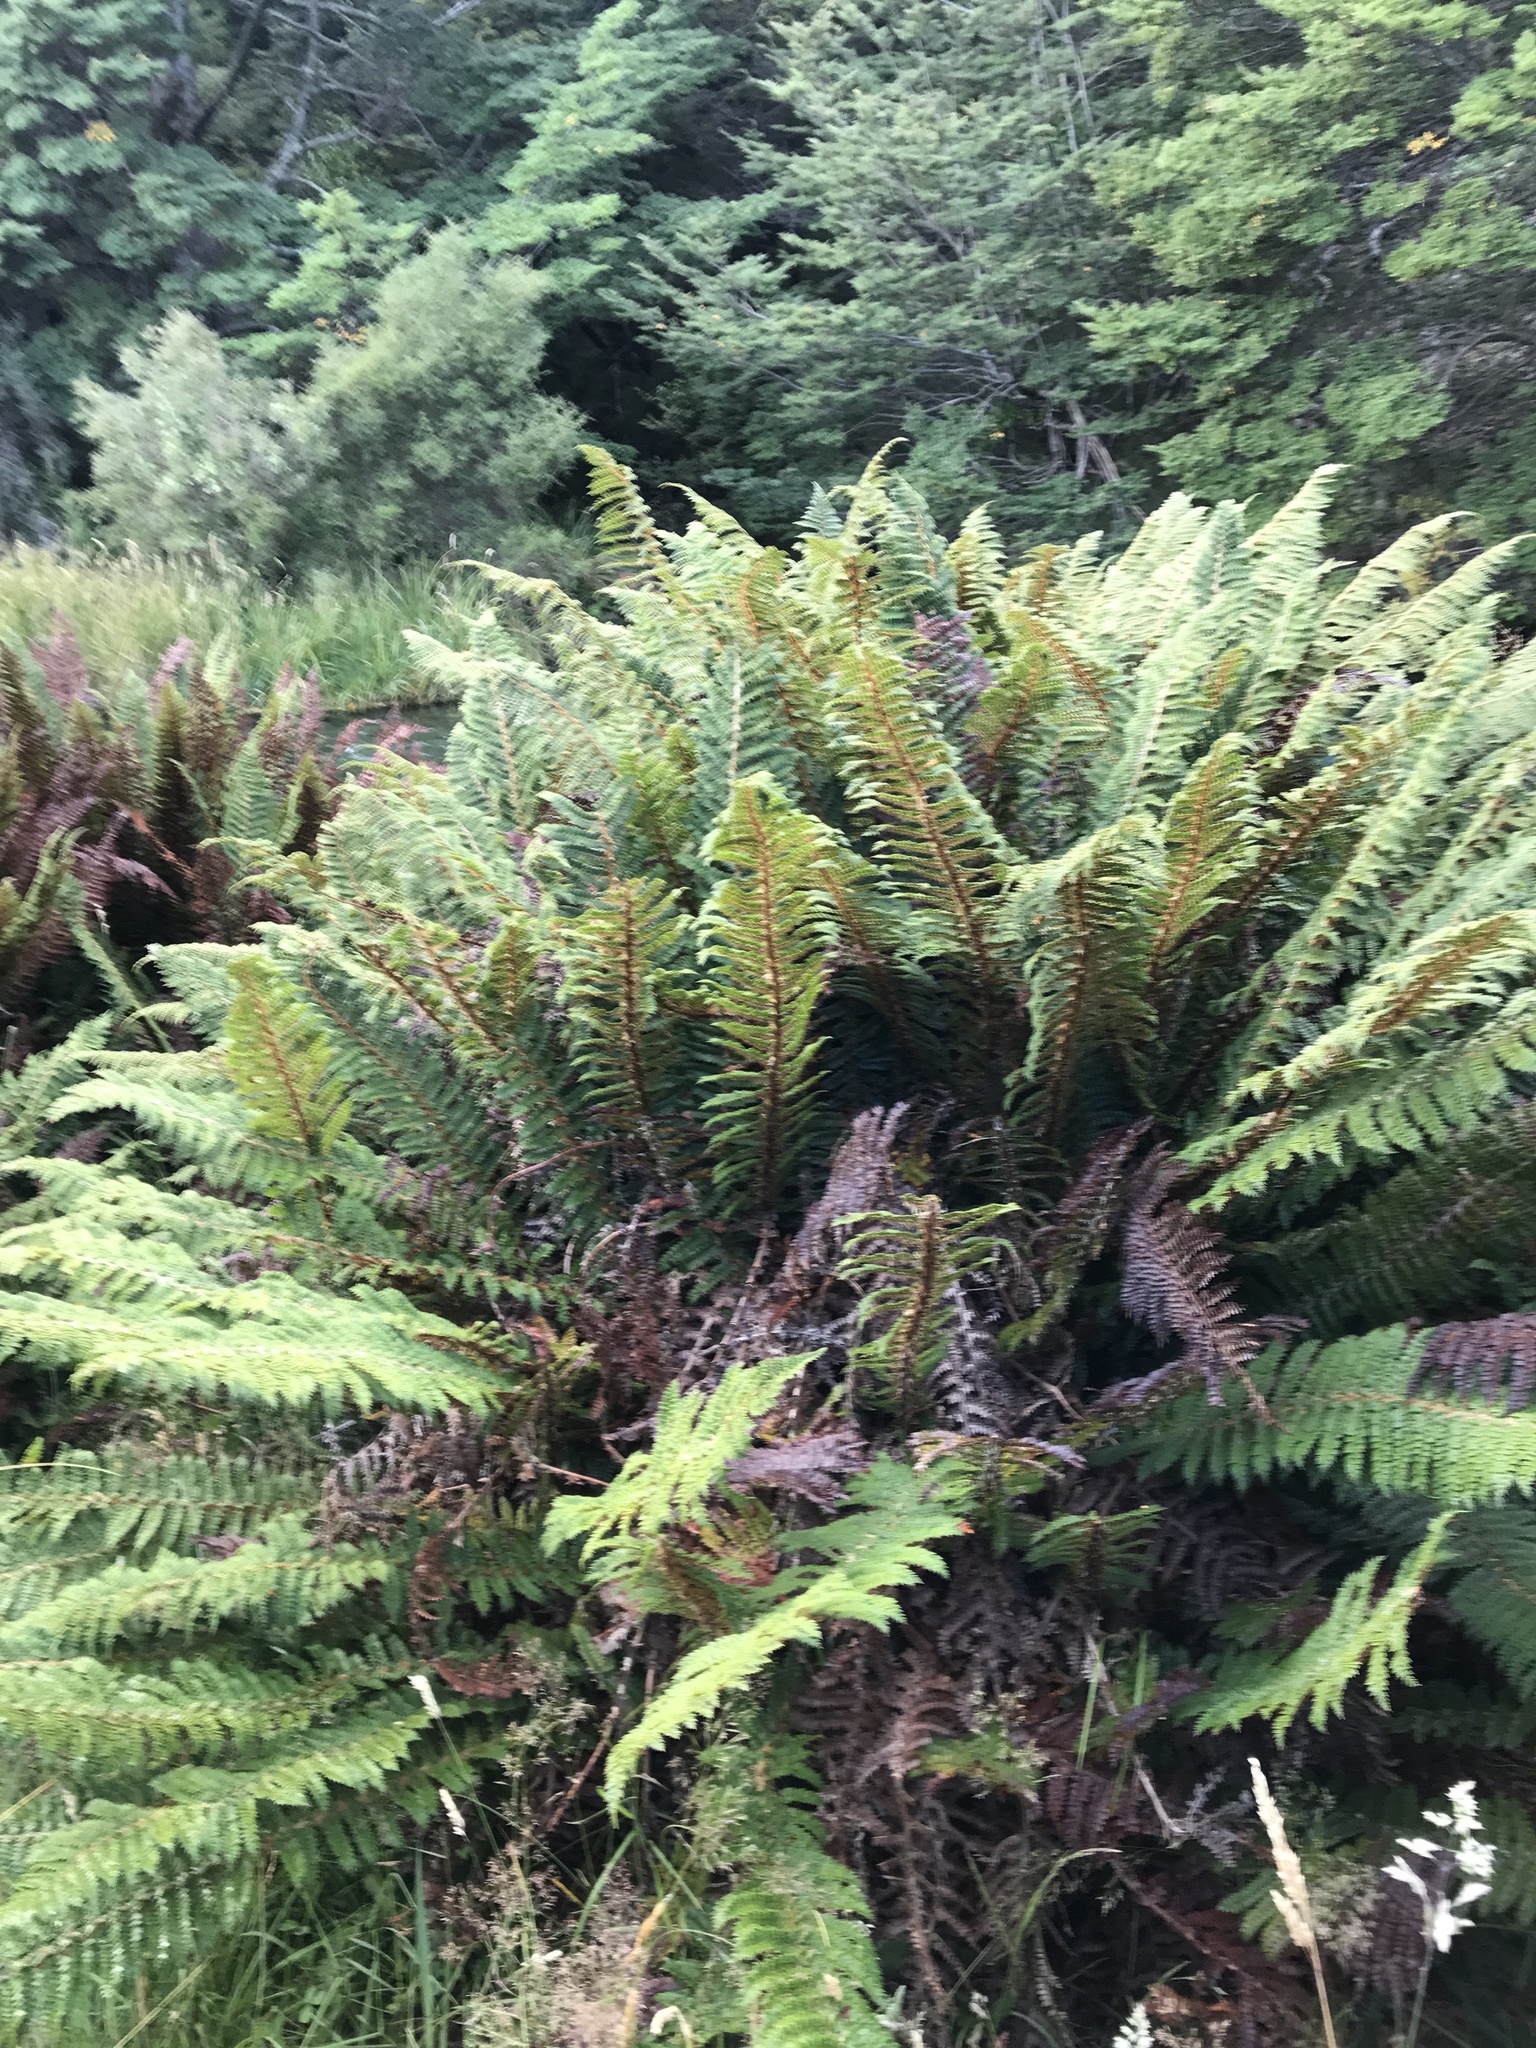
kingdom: Plantae
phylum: Tracheophyta
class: Polypodiopsida
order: Polypodiales
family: Dryopteridaceae
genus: Polystichum
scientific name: Polystichum vestitum
